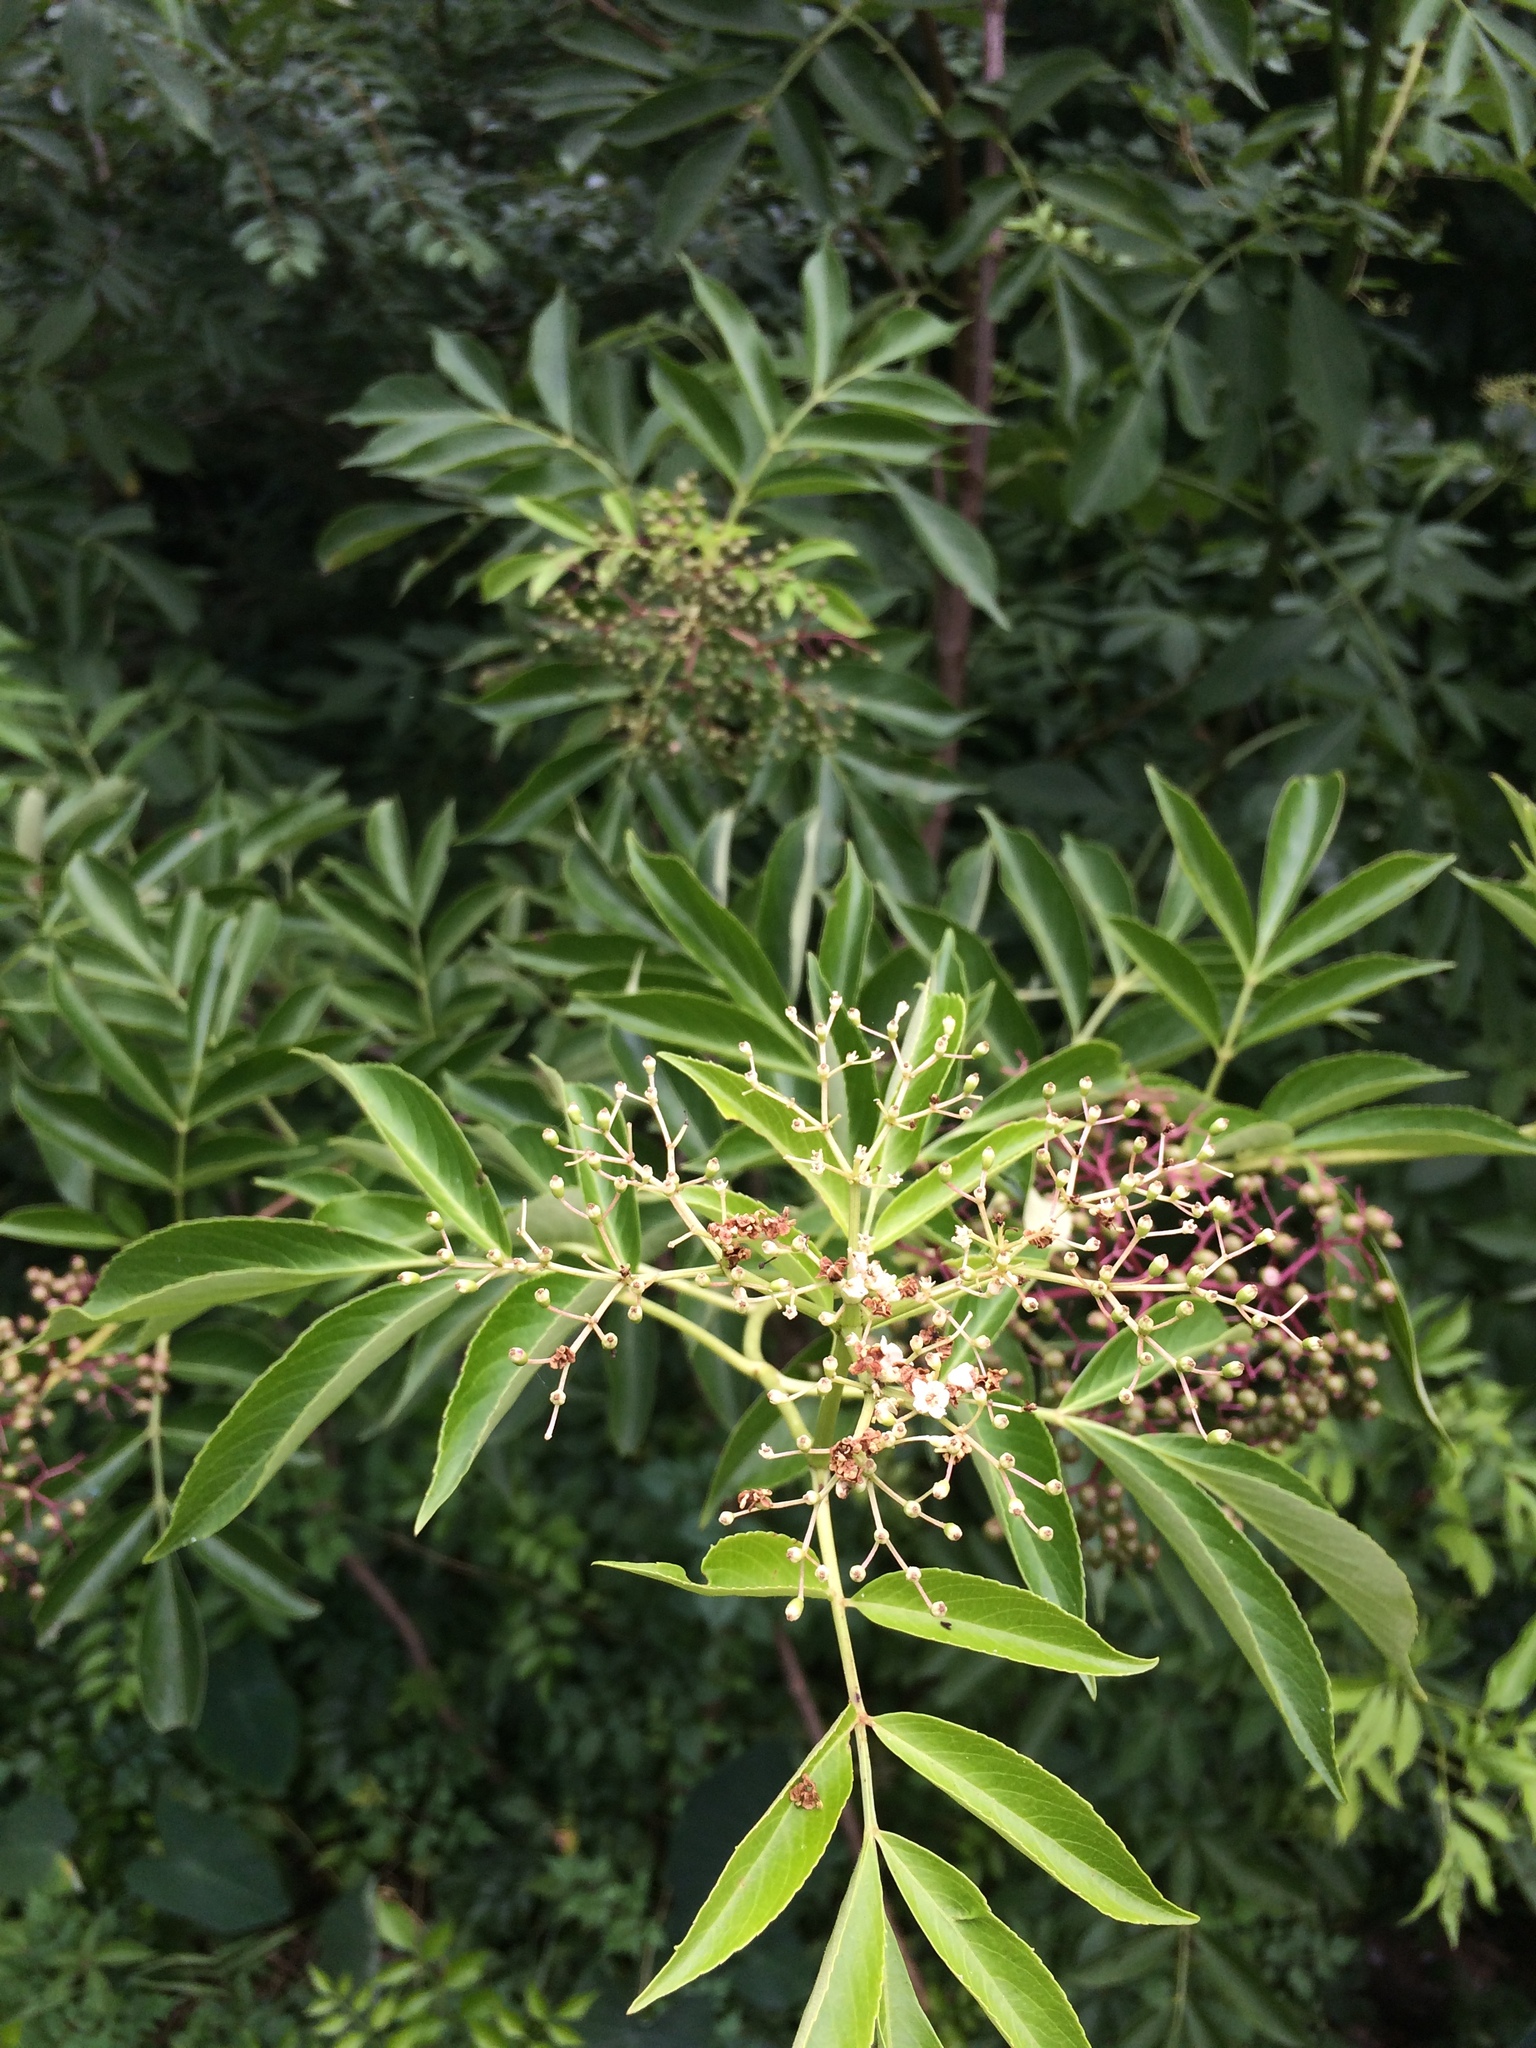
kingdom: Plantae
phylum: Tracheophyta
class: Magnoliopsida
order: Dipsacales
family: Viburnaceae
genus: Sambucus
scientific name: Sambucus canadensis
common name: American elder
